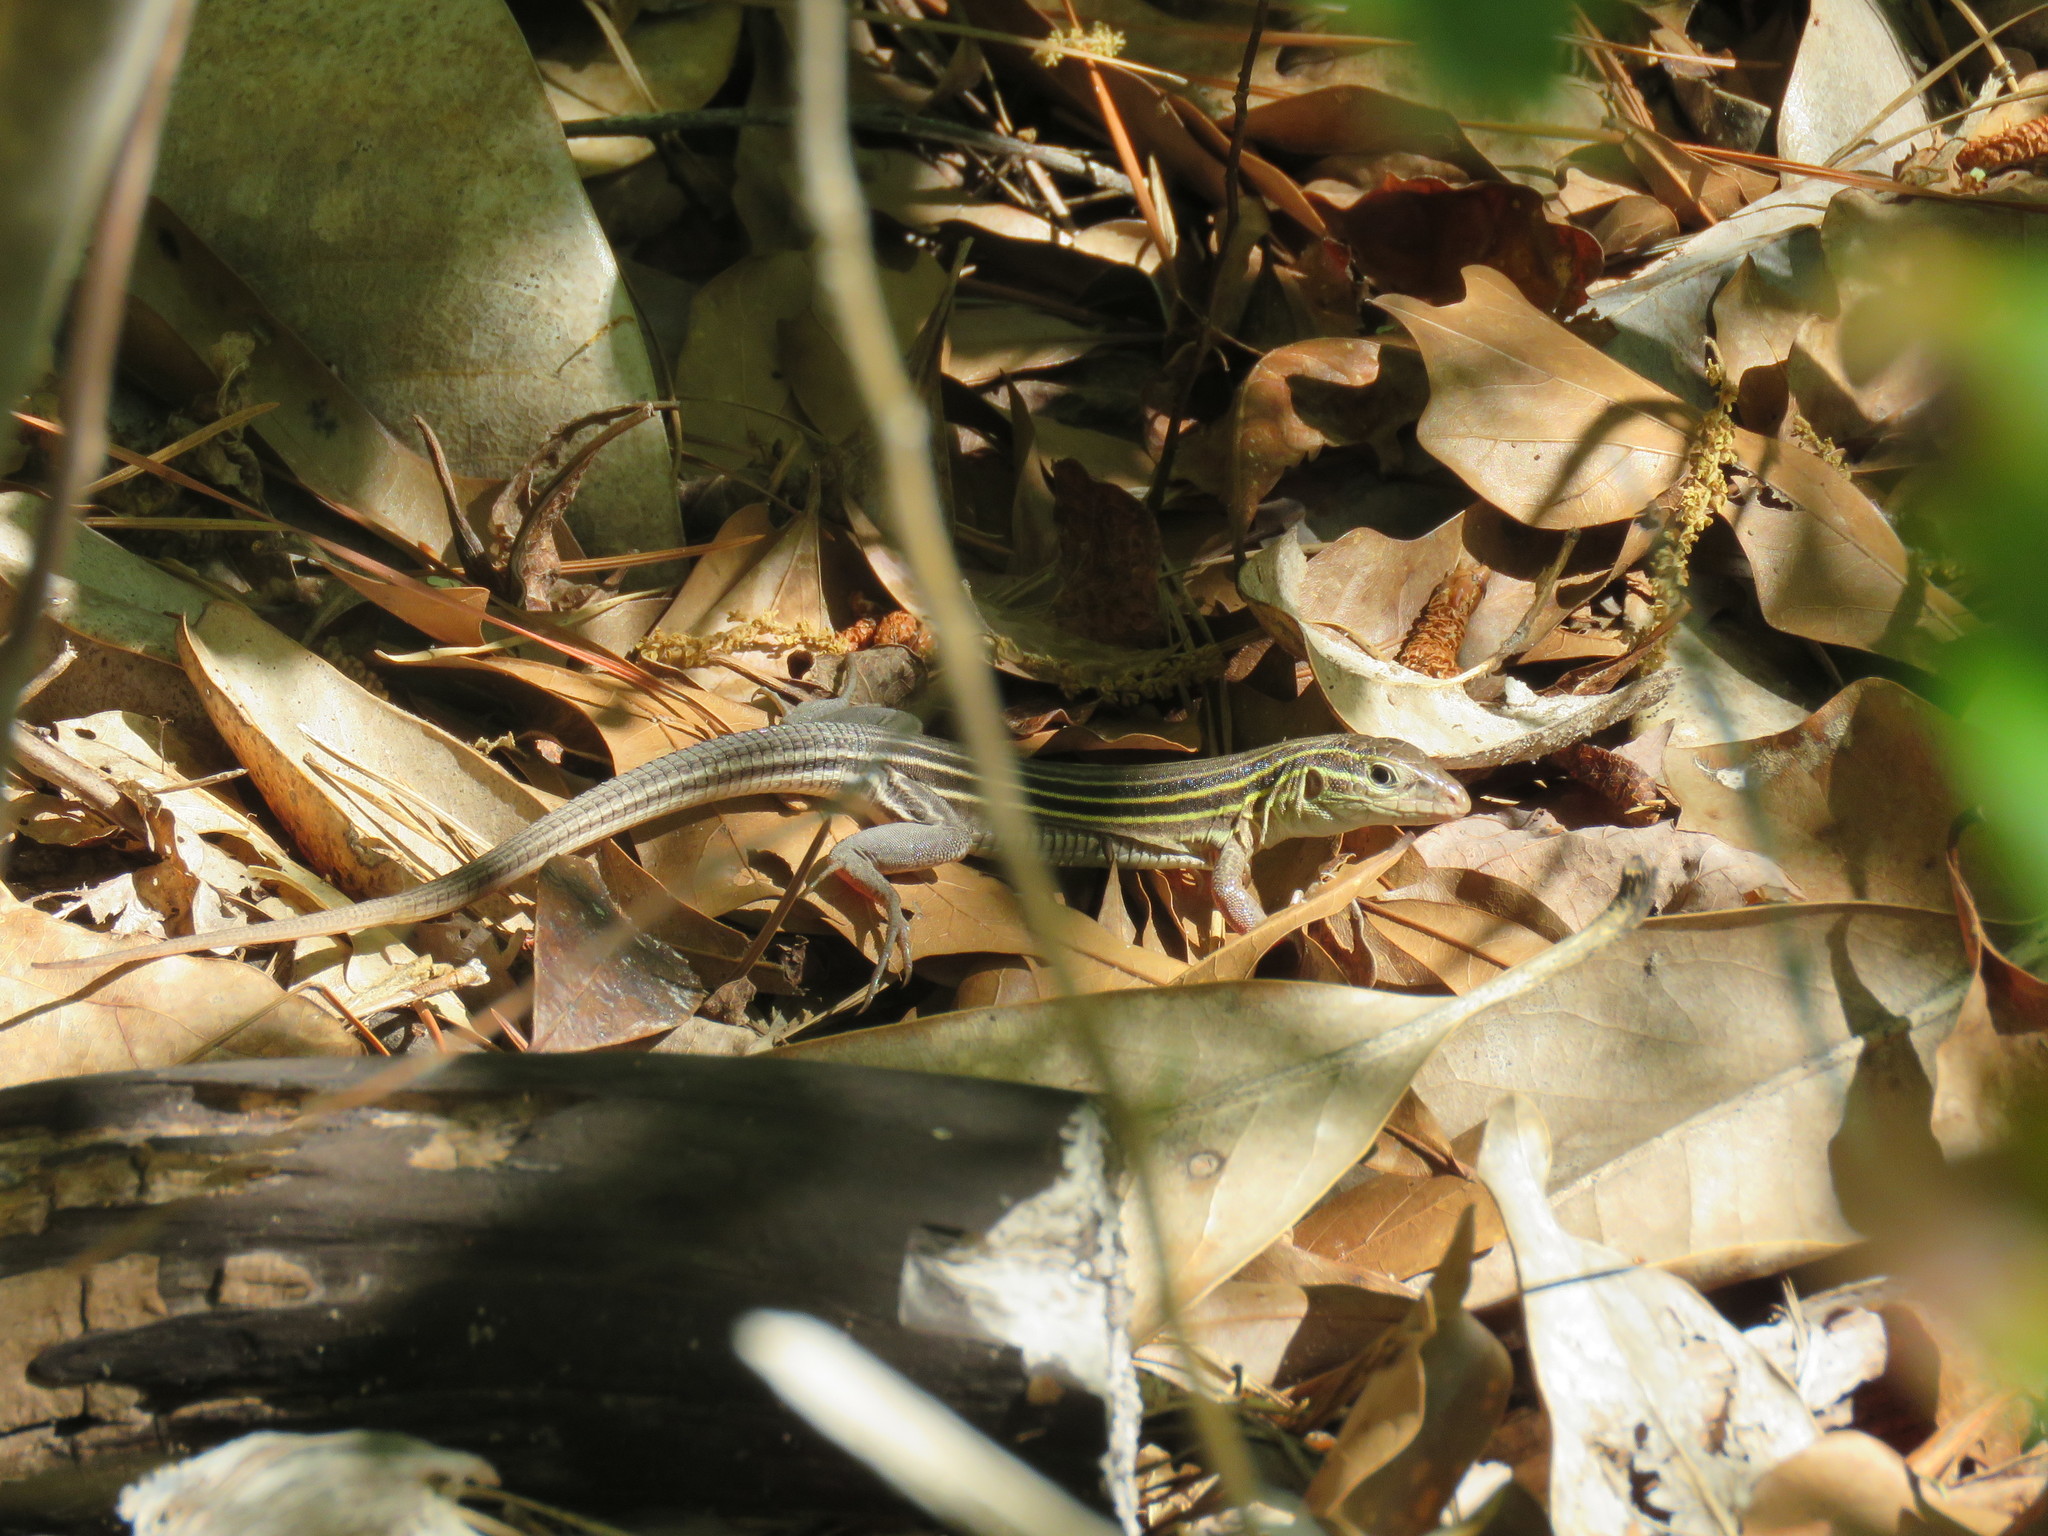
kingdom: Animalia
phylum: Chordata
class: Squamata
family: Teiidae
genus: Aspidoscelis
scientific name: Aspidoscelis sexlineatus
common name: Six-lined racerunner
